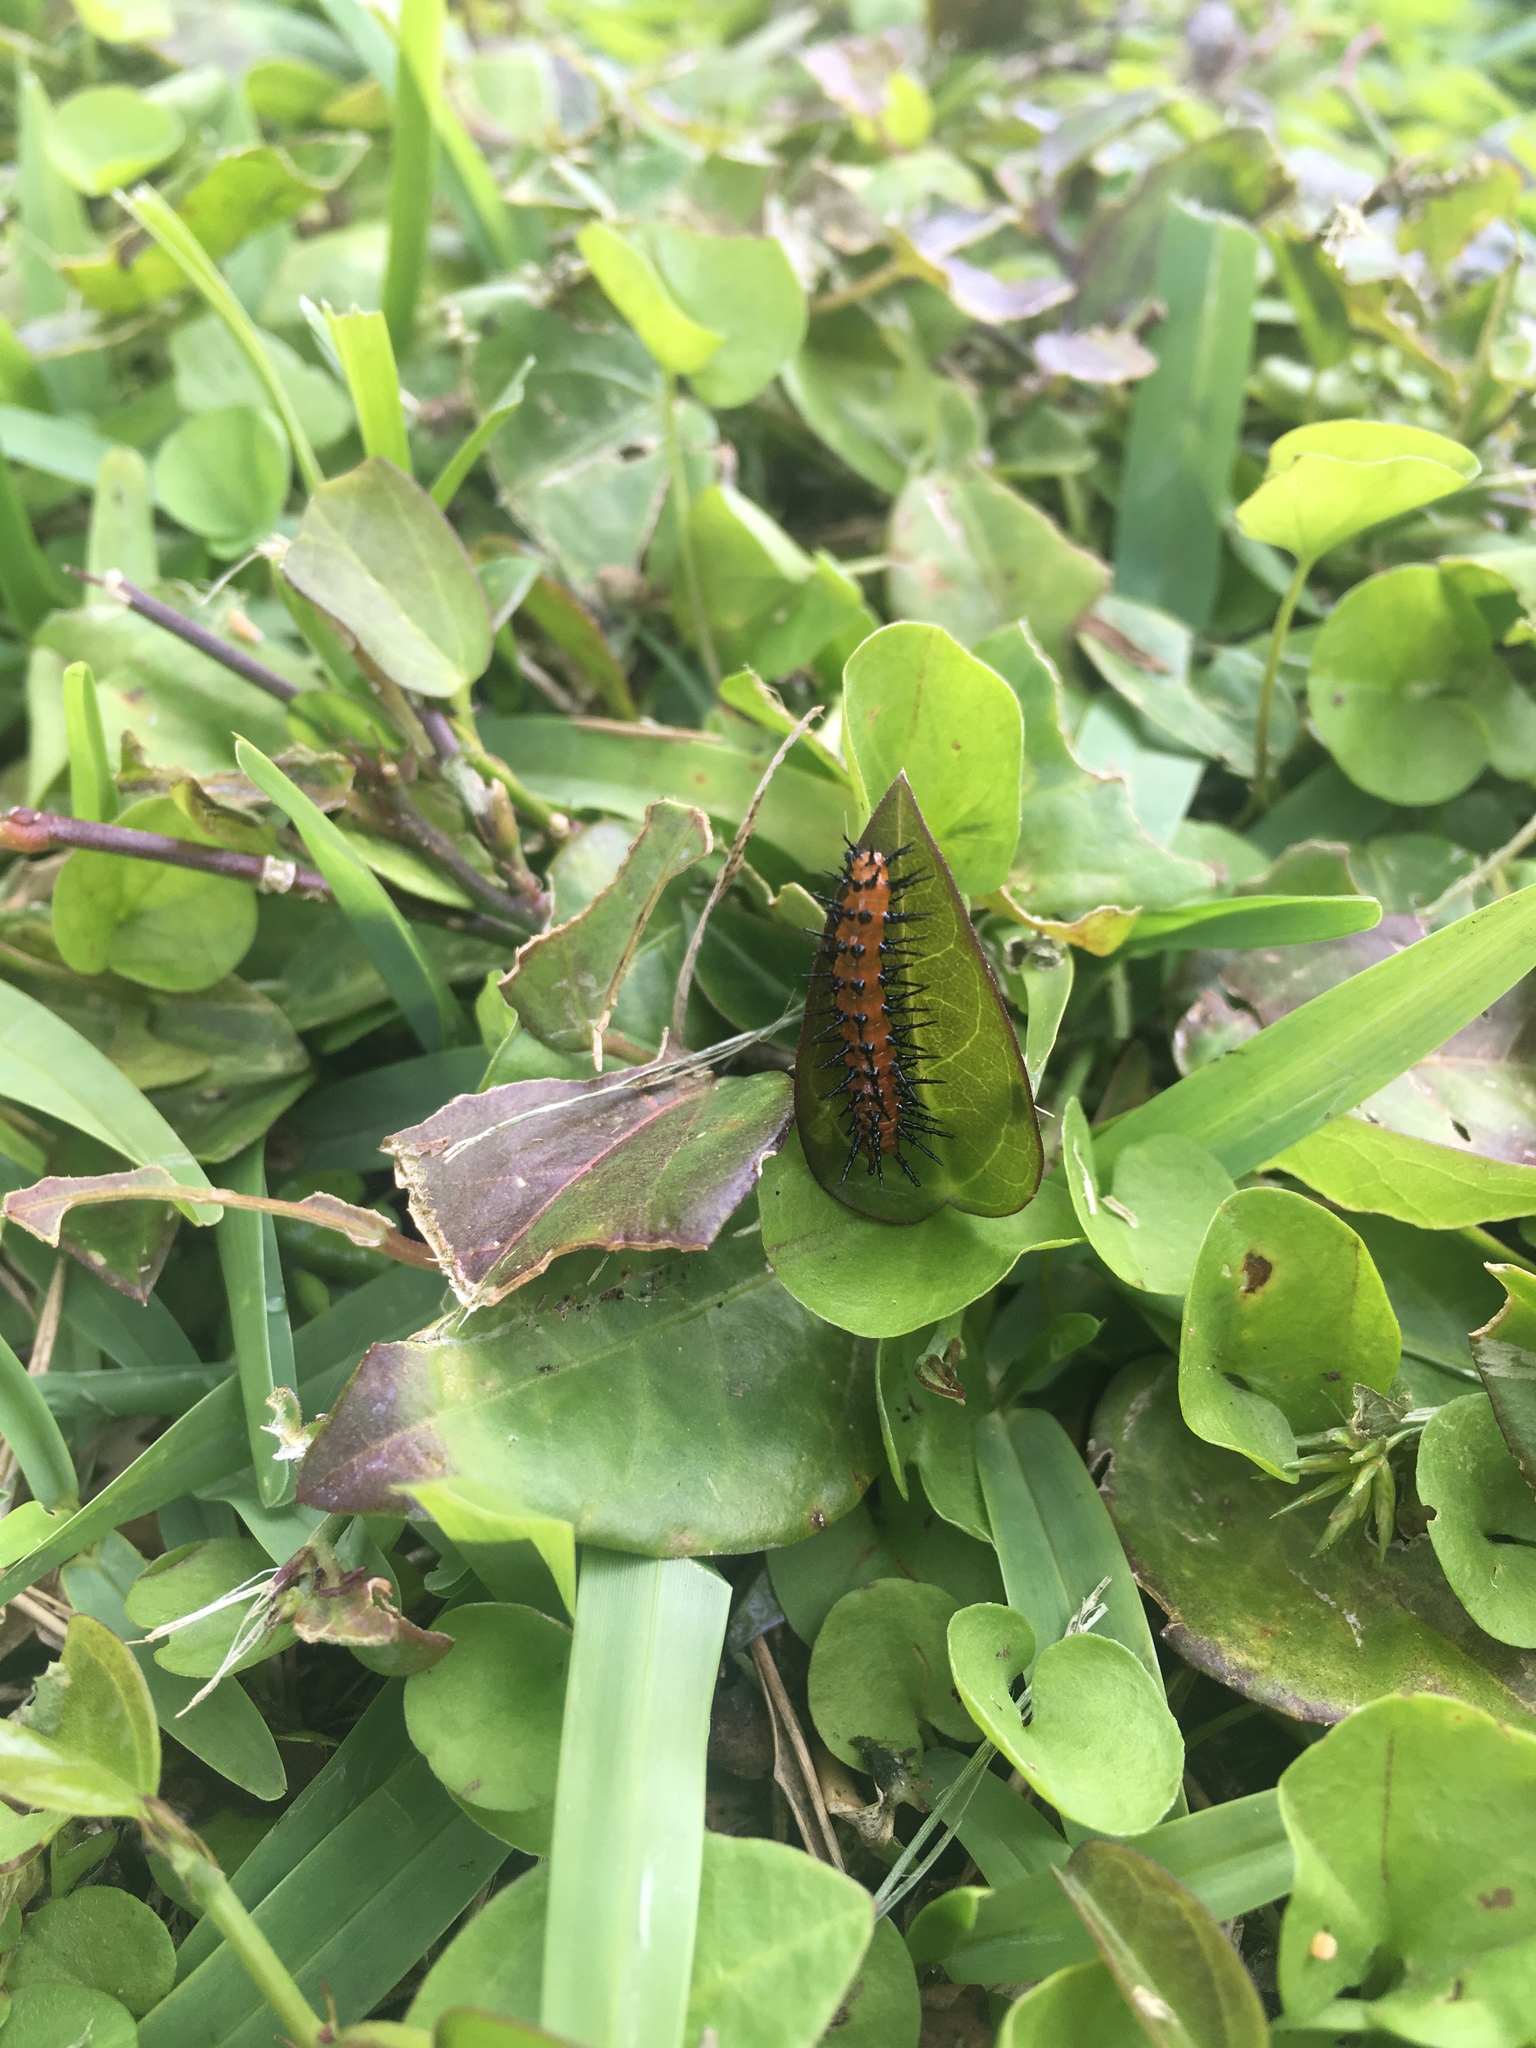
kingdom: Animalia
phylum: Arthropoda
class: Insecta
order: Lepidoptera
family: Nymphalidae
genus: Dione
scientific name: Dione vanillae
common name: Gulf fritillary
